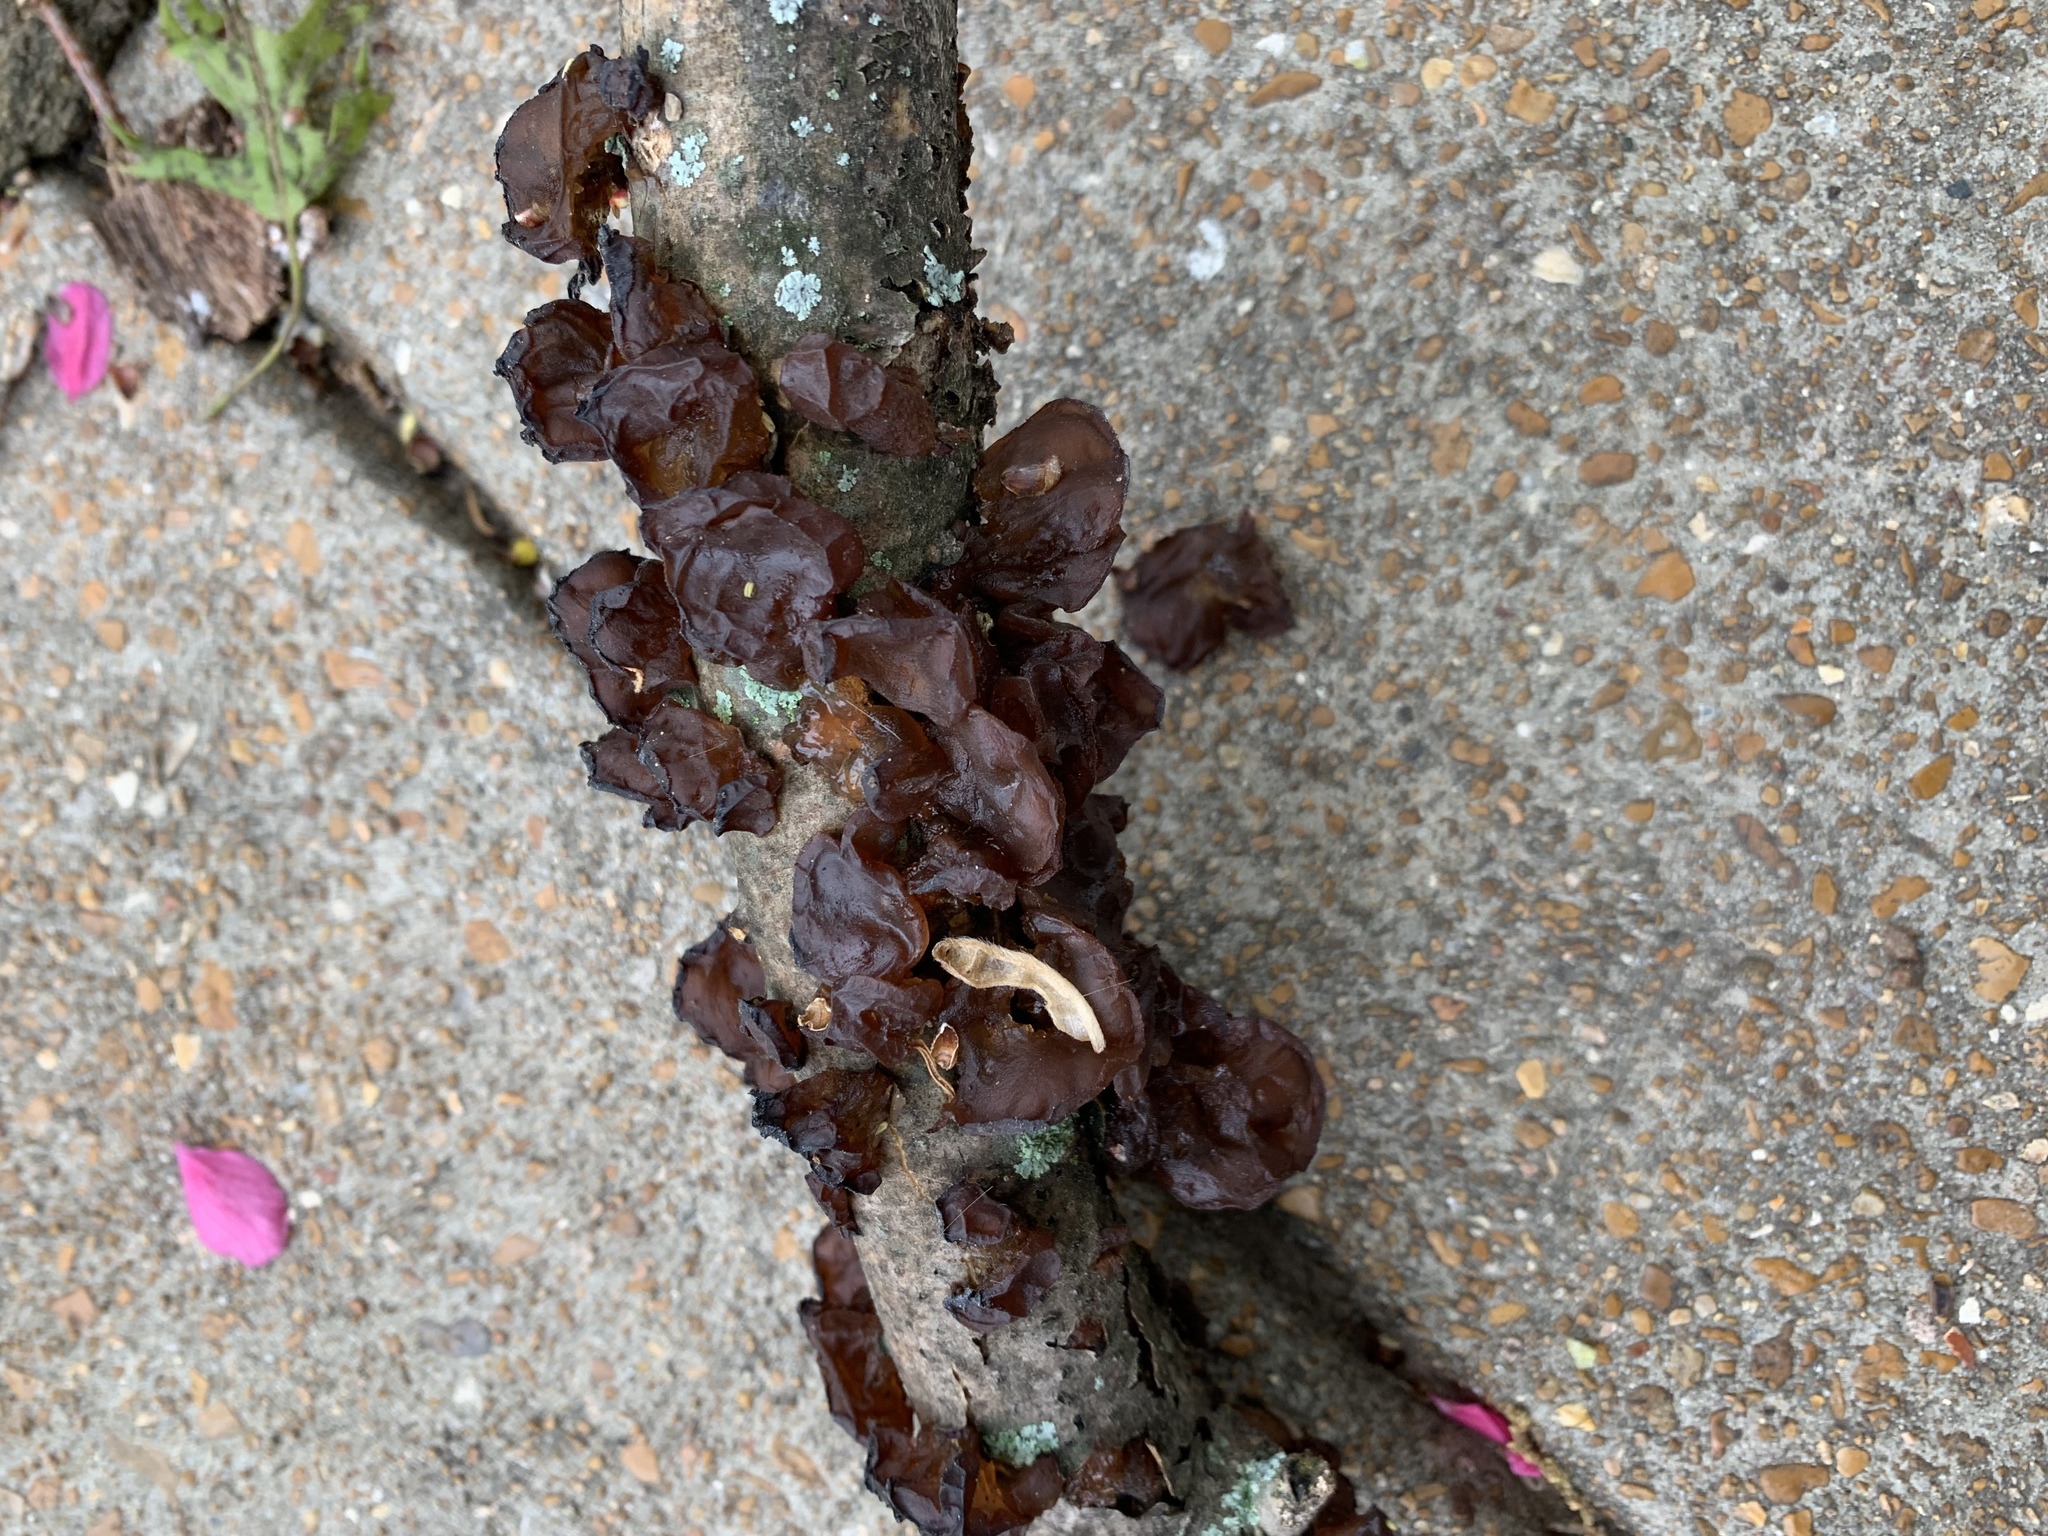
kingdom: Fungi
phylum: Basidiomycota
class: Agaricomycetes
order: Auriculariales
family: Auriculariaceae
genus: Exidia
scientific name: Exidia
